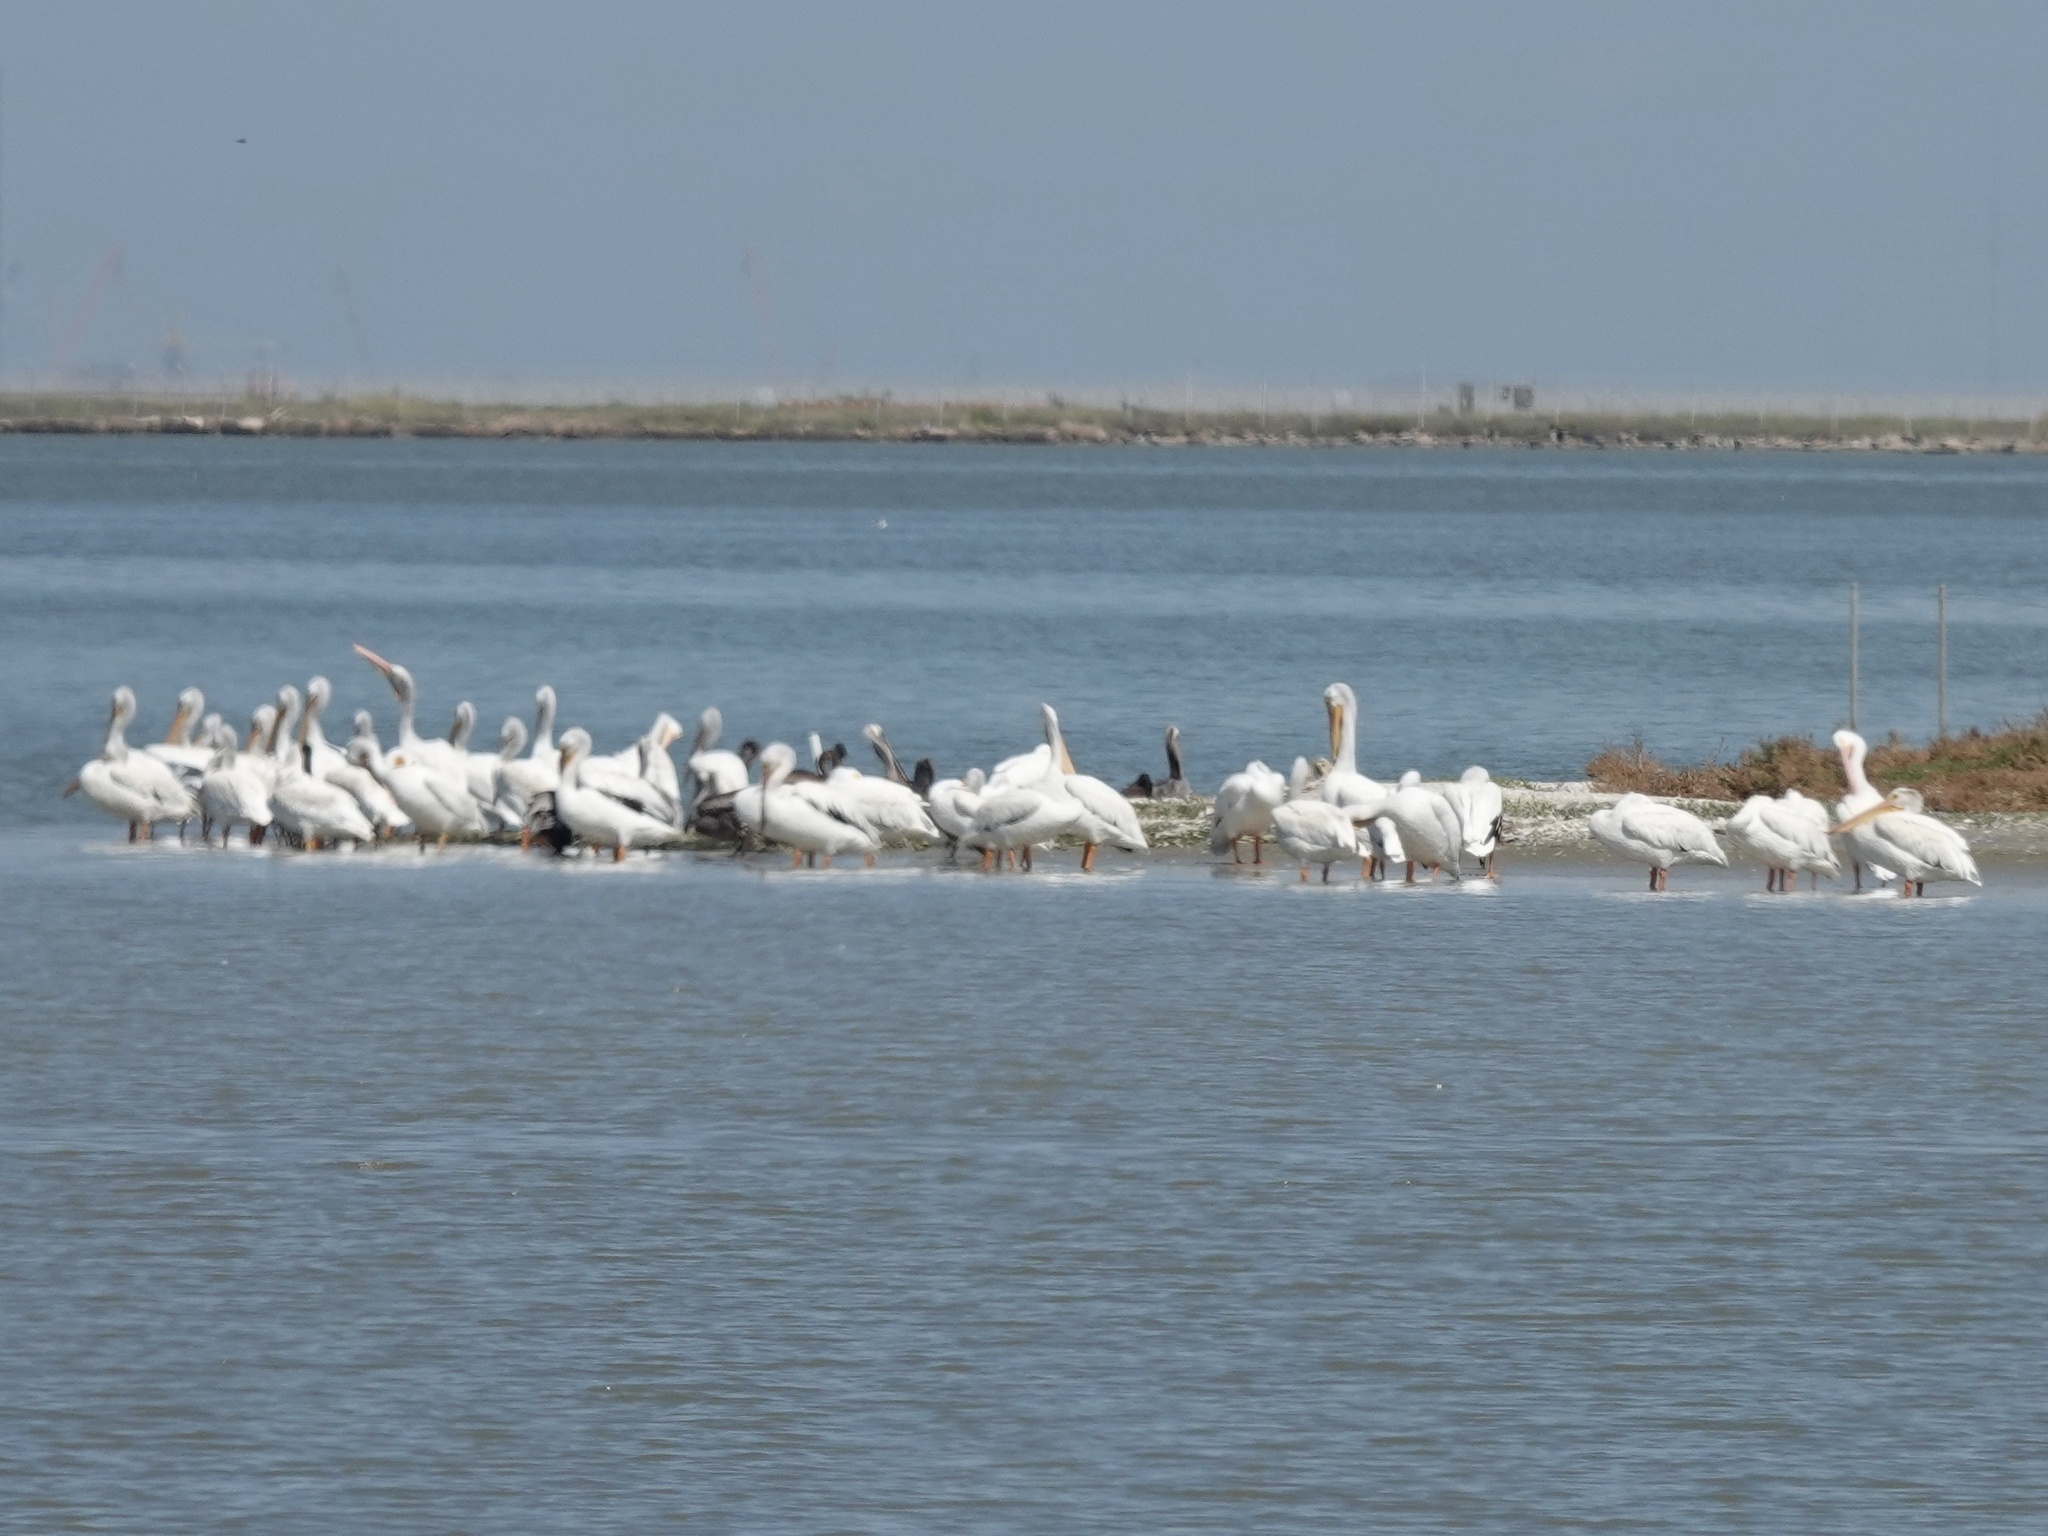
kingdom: Animalia
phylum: Chordata
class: Aves
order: Pelecaniformes
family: Pelecanidae
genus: Pelecanus
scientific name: Pelecanus erythrorhynchos
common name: American white pelican
